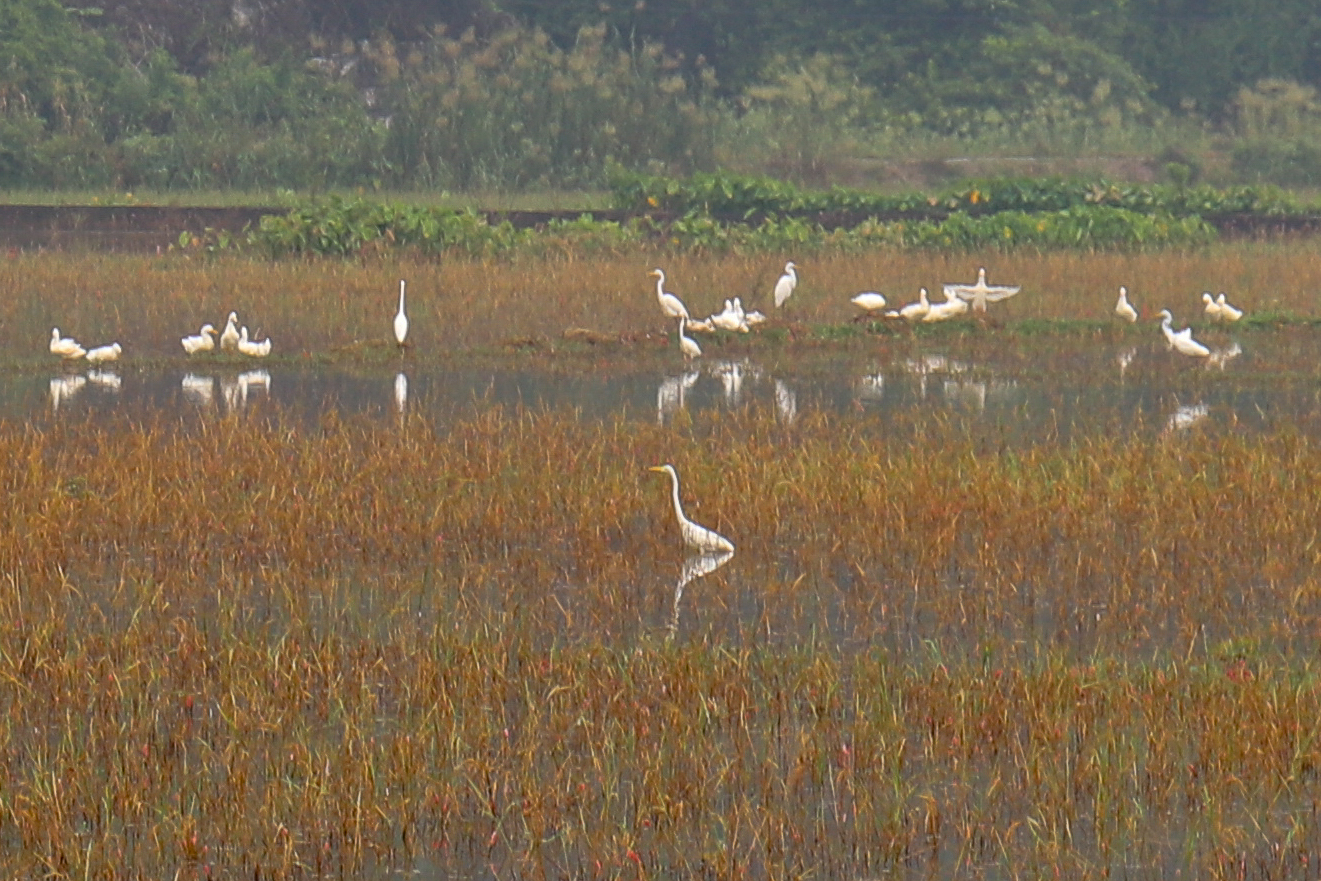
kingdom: Animalia
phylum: Chordata
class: Aves
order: Pelecaniformes
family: Ardeidae
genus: Ardea
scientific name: Ardea alba
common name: Great egret
